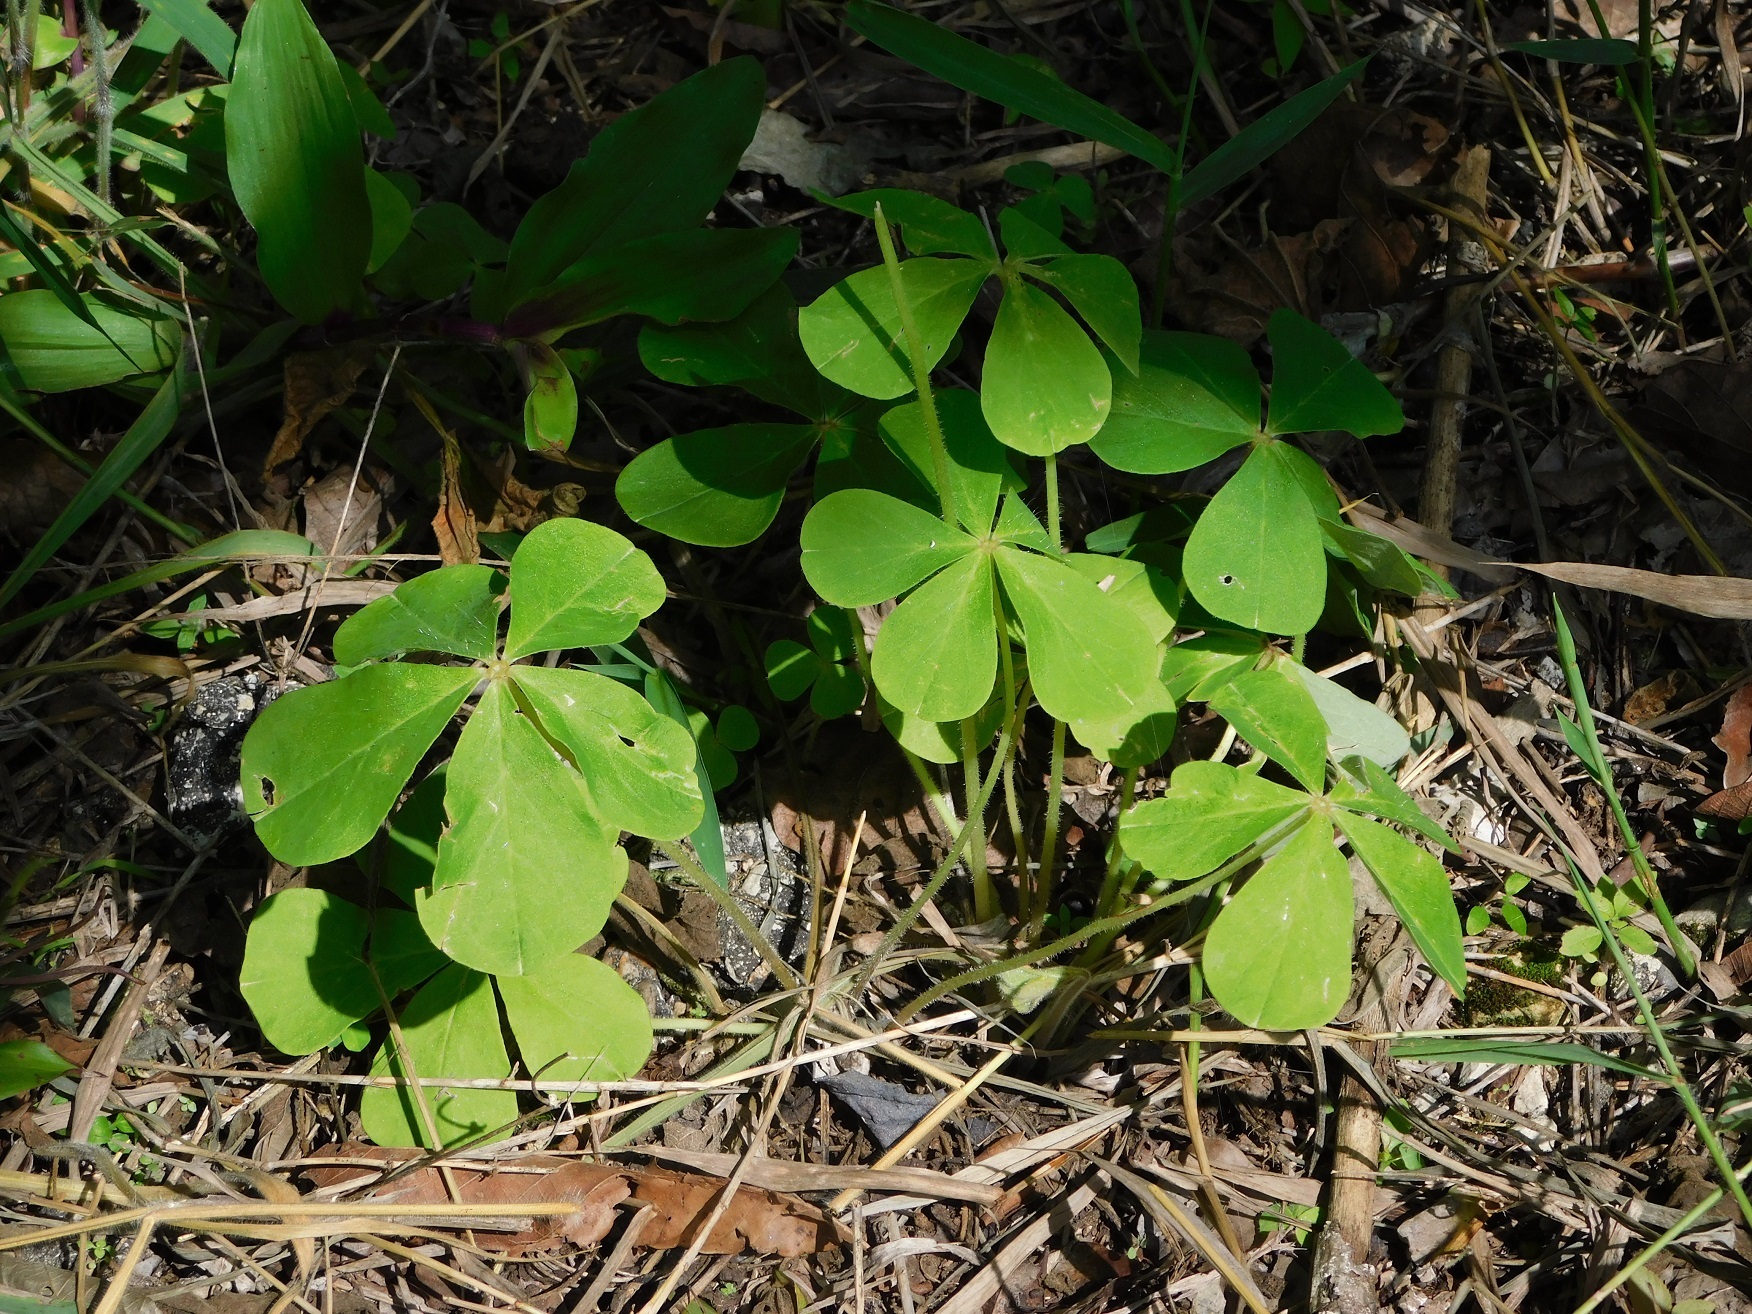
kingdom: Plantae
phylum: Tracheophyta
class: Magnoliopsida
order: Oxalidales
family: Oxalidaceae
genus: Oxalis
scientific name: Oxalis nelsonii
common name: Sorrel
